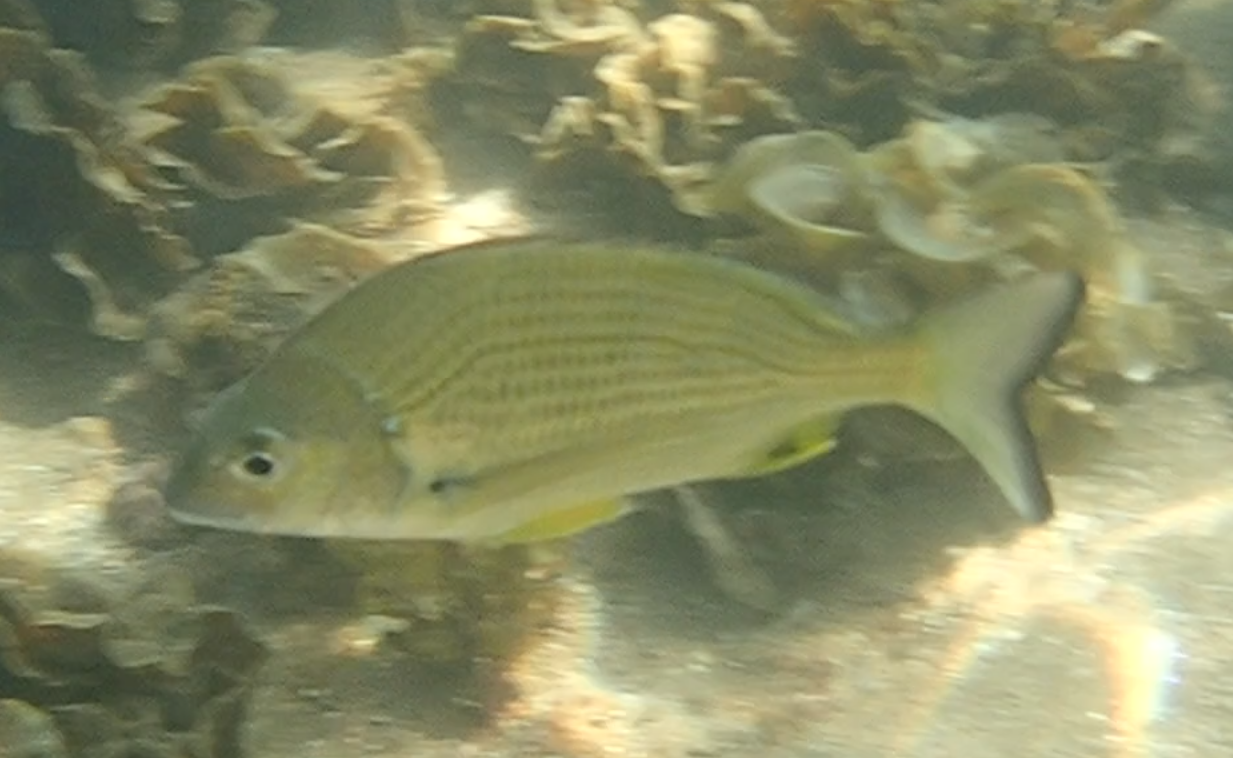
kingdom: Animalia
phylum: Chordata
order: Perciformes
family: Sparidae
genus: Acanthopagrus
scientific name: Acanthopagrus australis
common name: Surf bream
